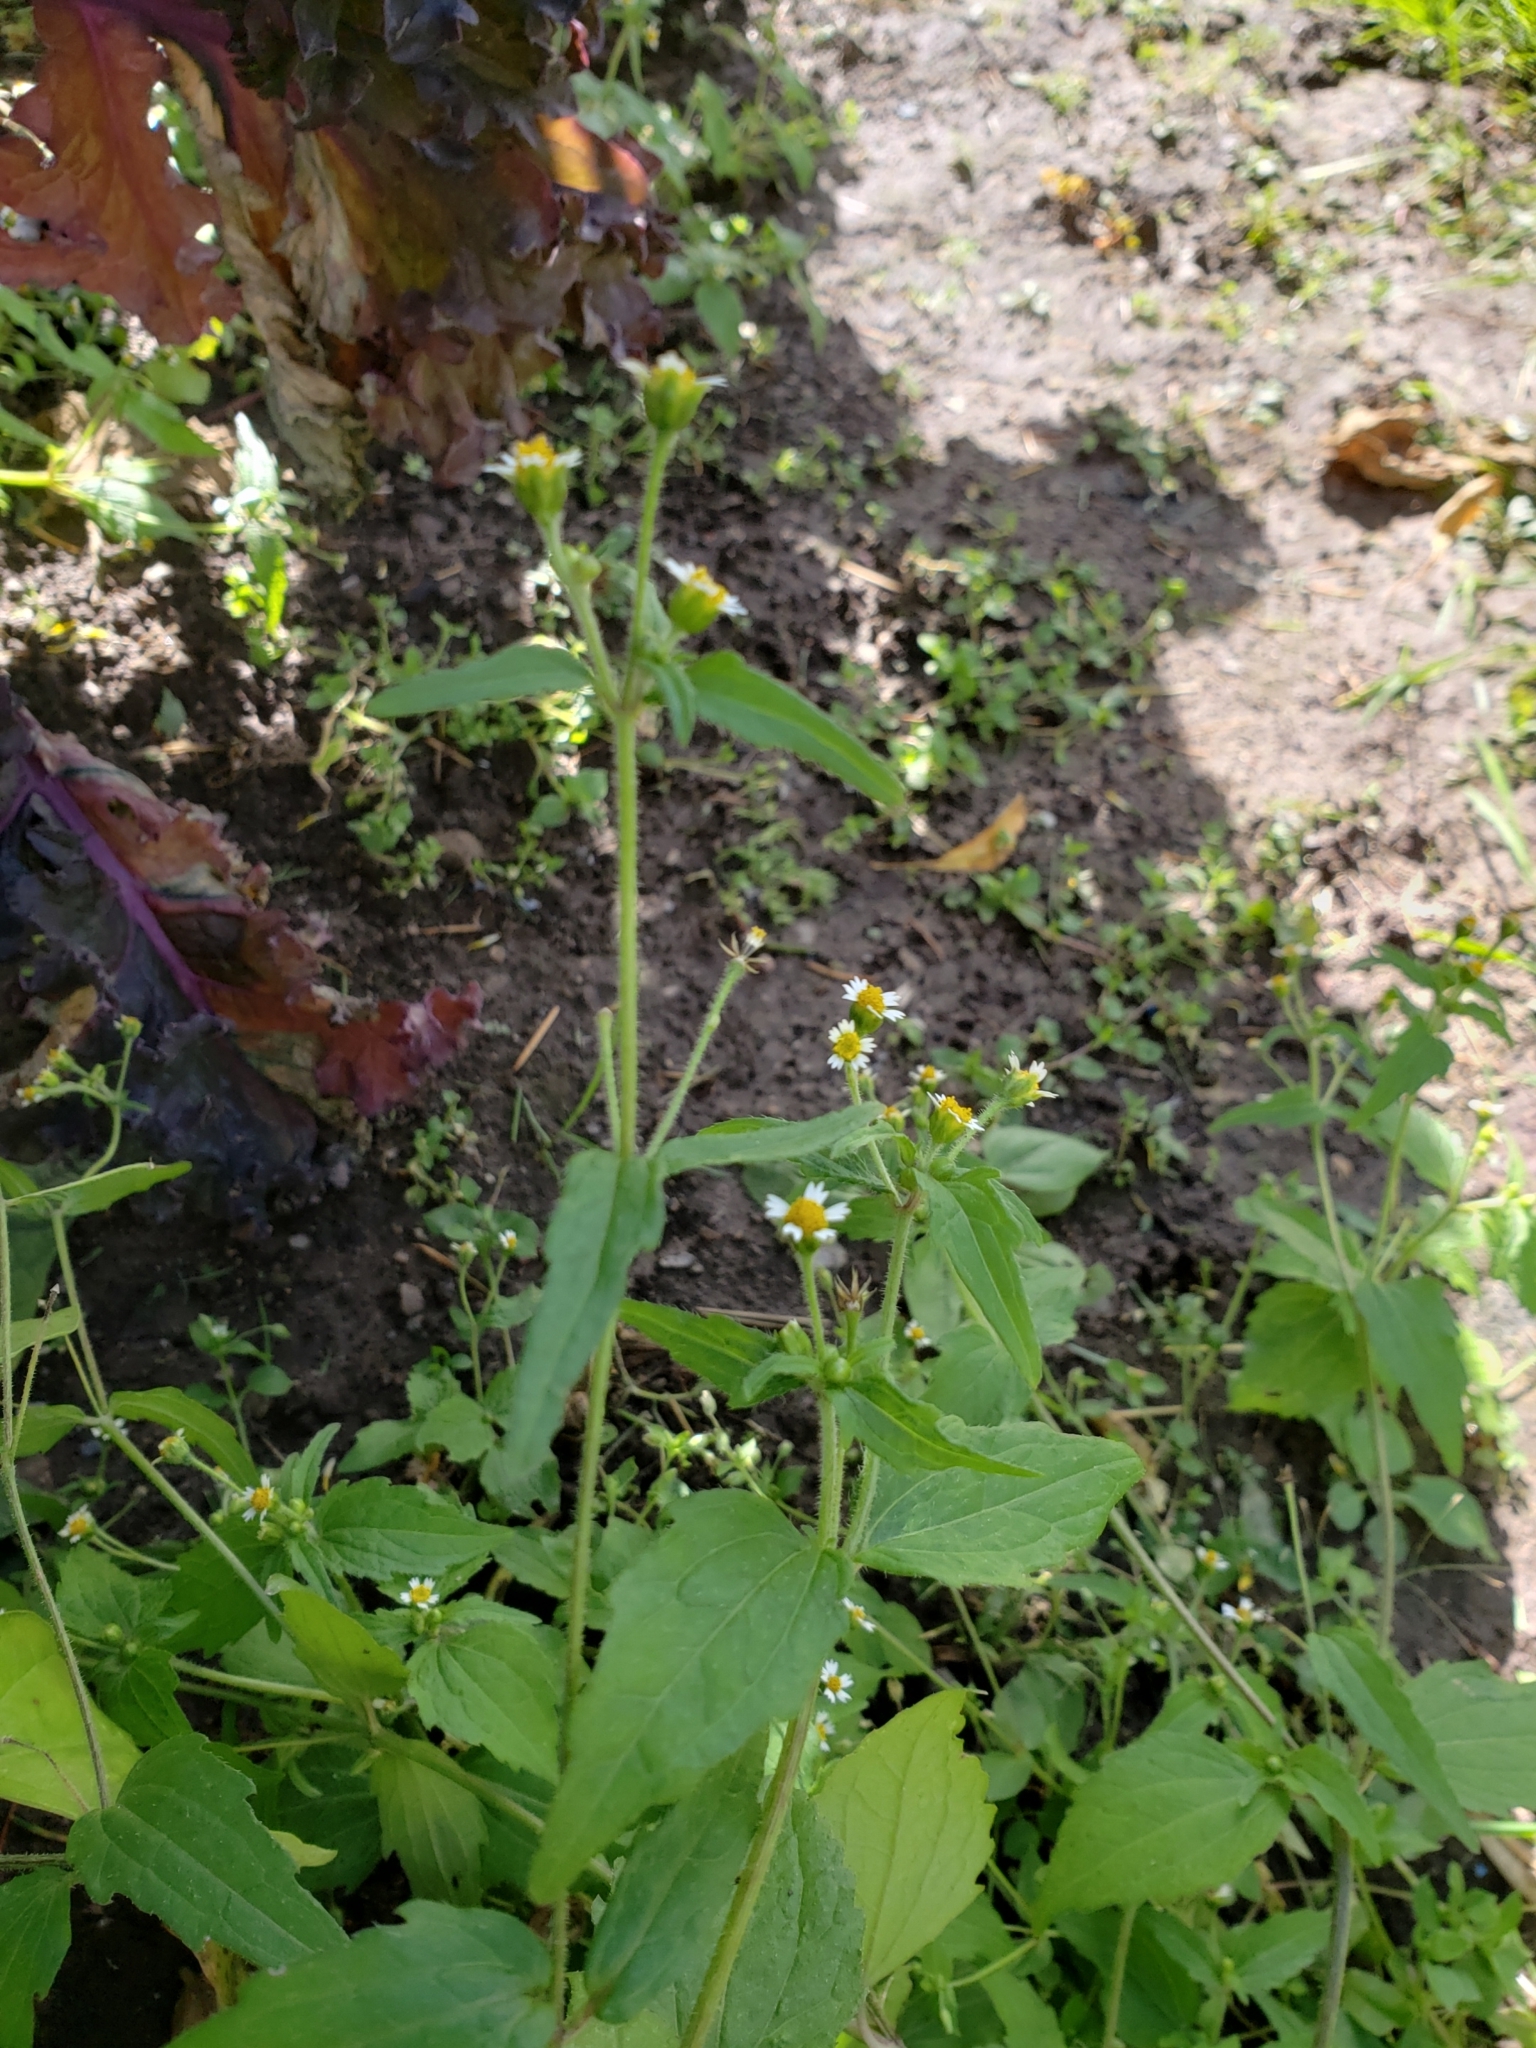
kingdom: Plantae
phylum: Tracheophyta
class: Magnoliopsida
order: Asterales
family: Asteraceae
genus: Galinsoga
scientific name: Galinsoga quadriradiata
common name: Shaggy soldier
